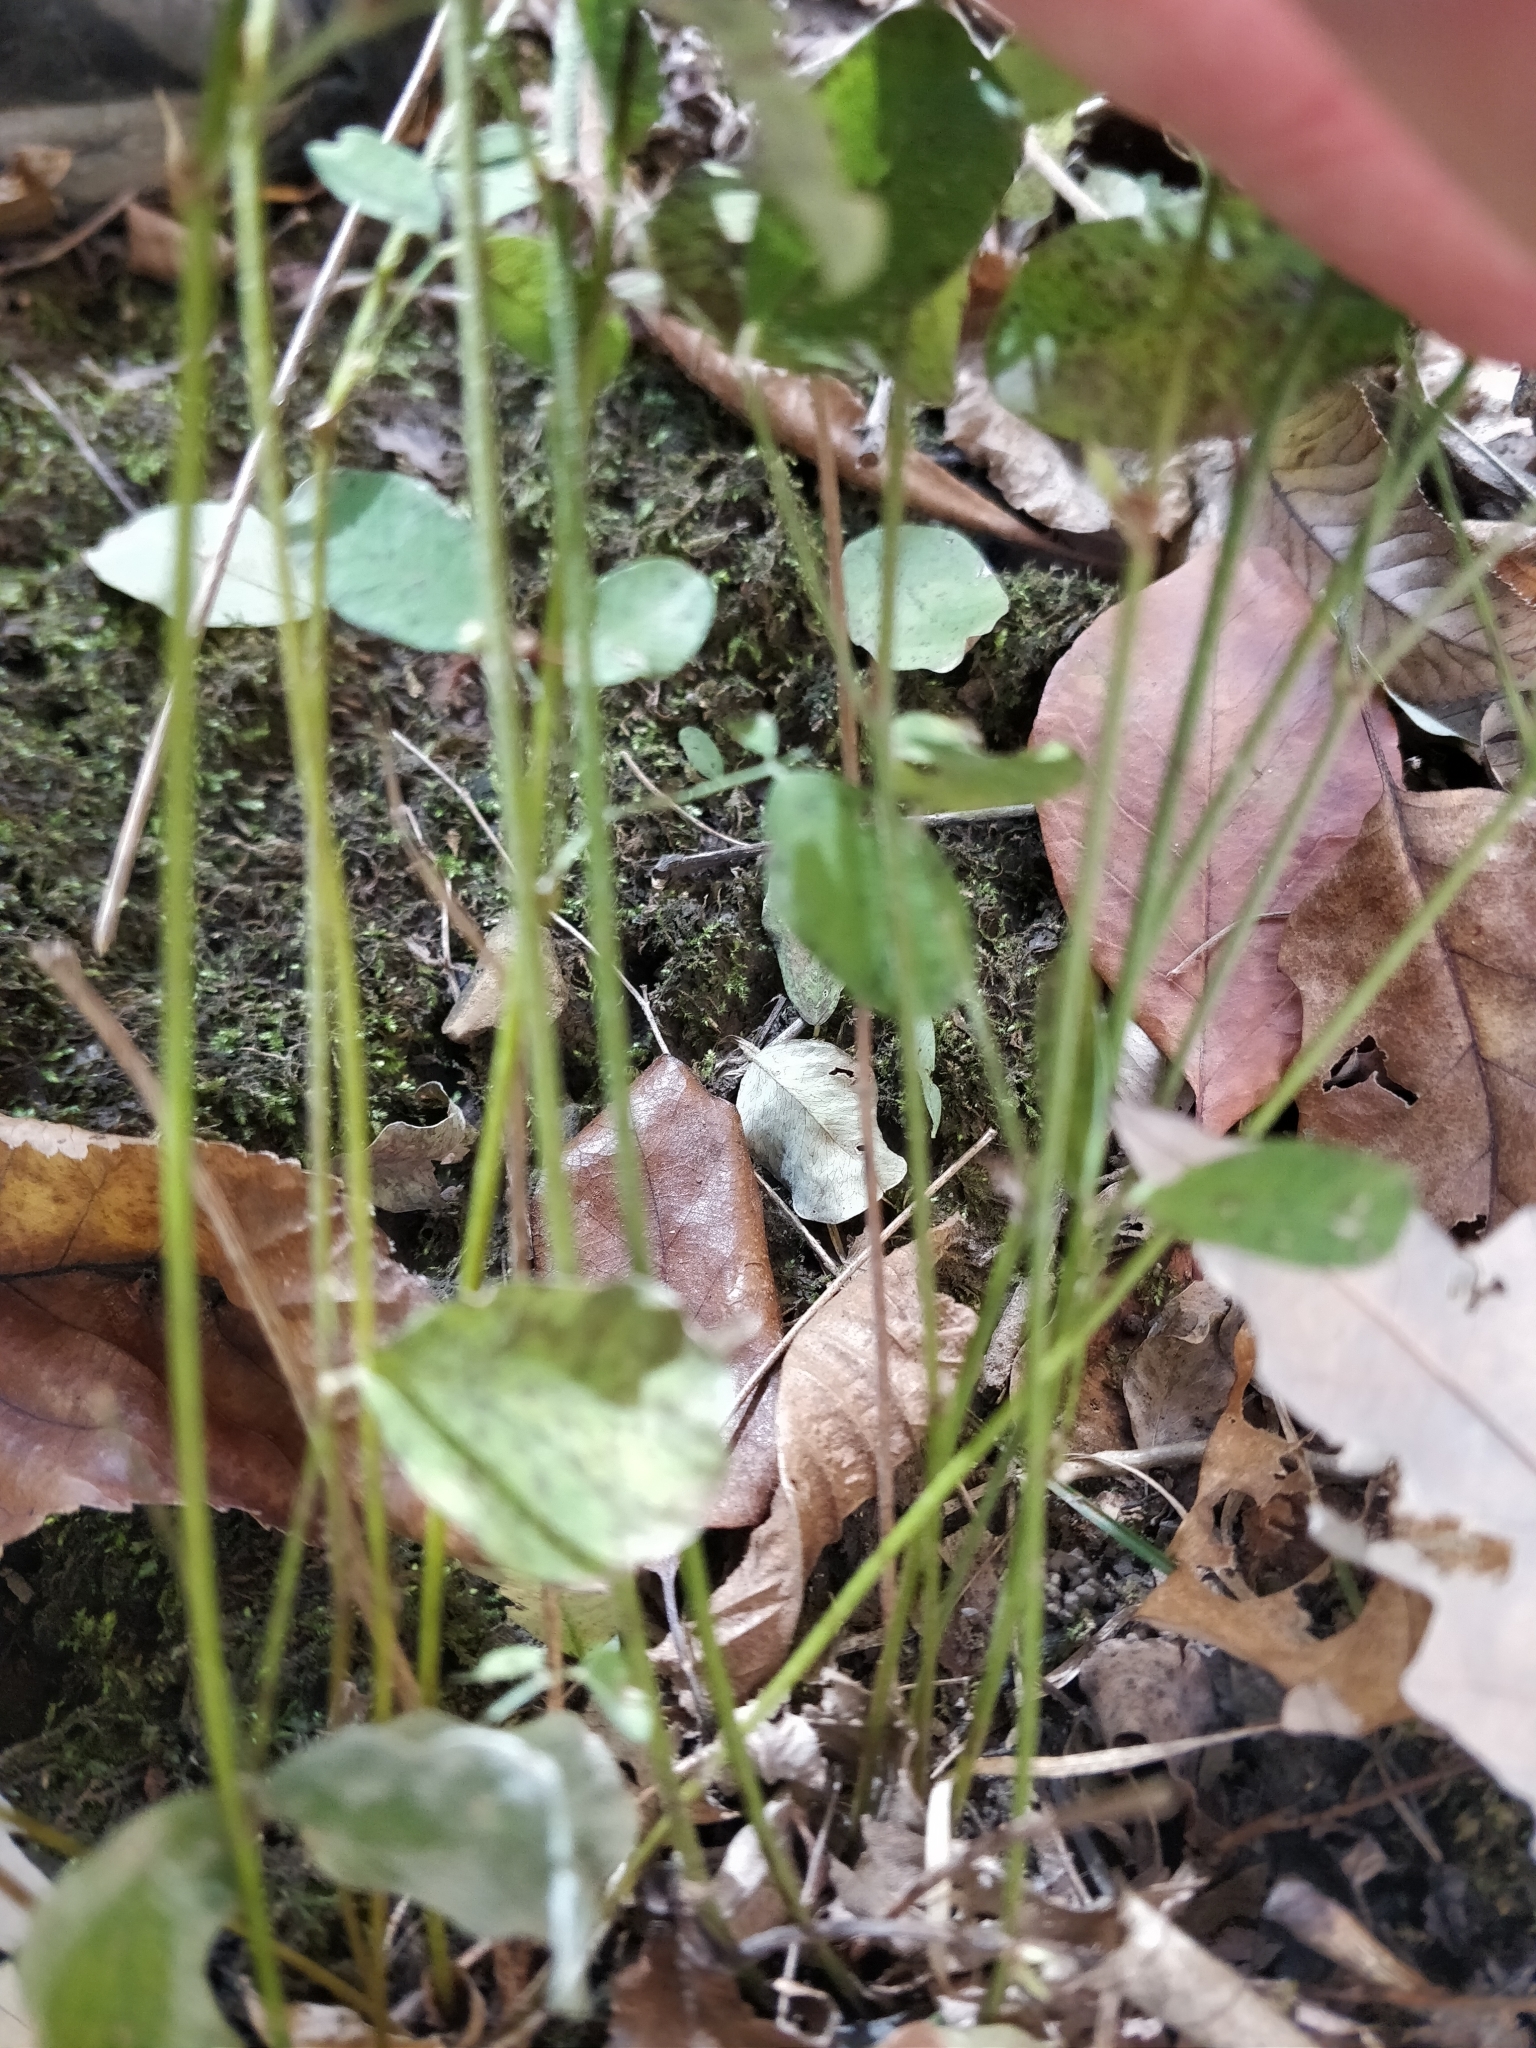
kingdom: Plantae
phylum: Tracheophyta
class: Magnoliopsida
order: Fabales
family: Fabaceae
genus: Lespedeza
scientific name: Lespedeza
